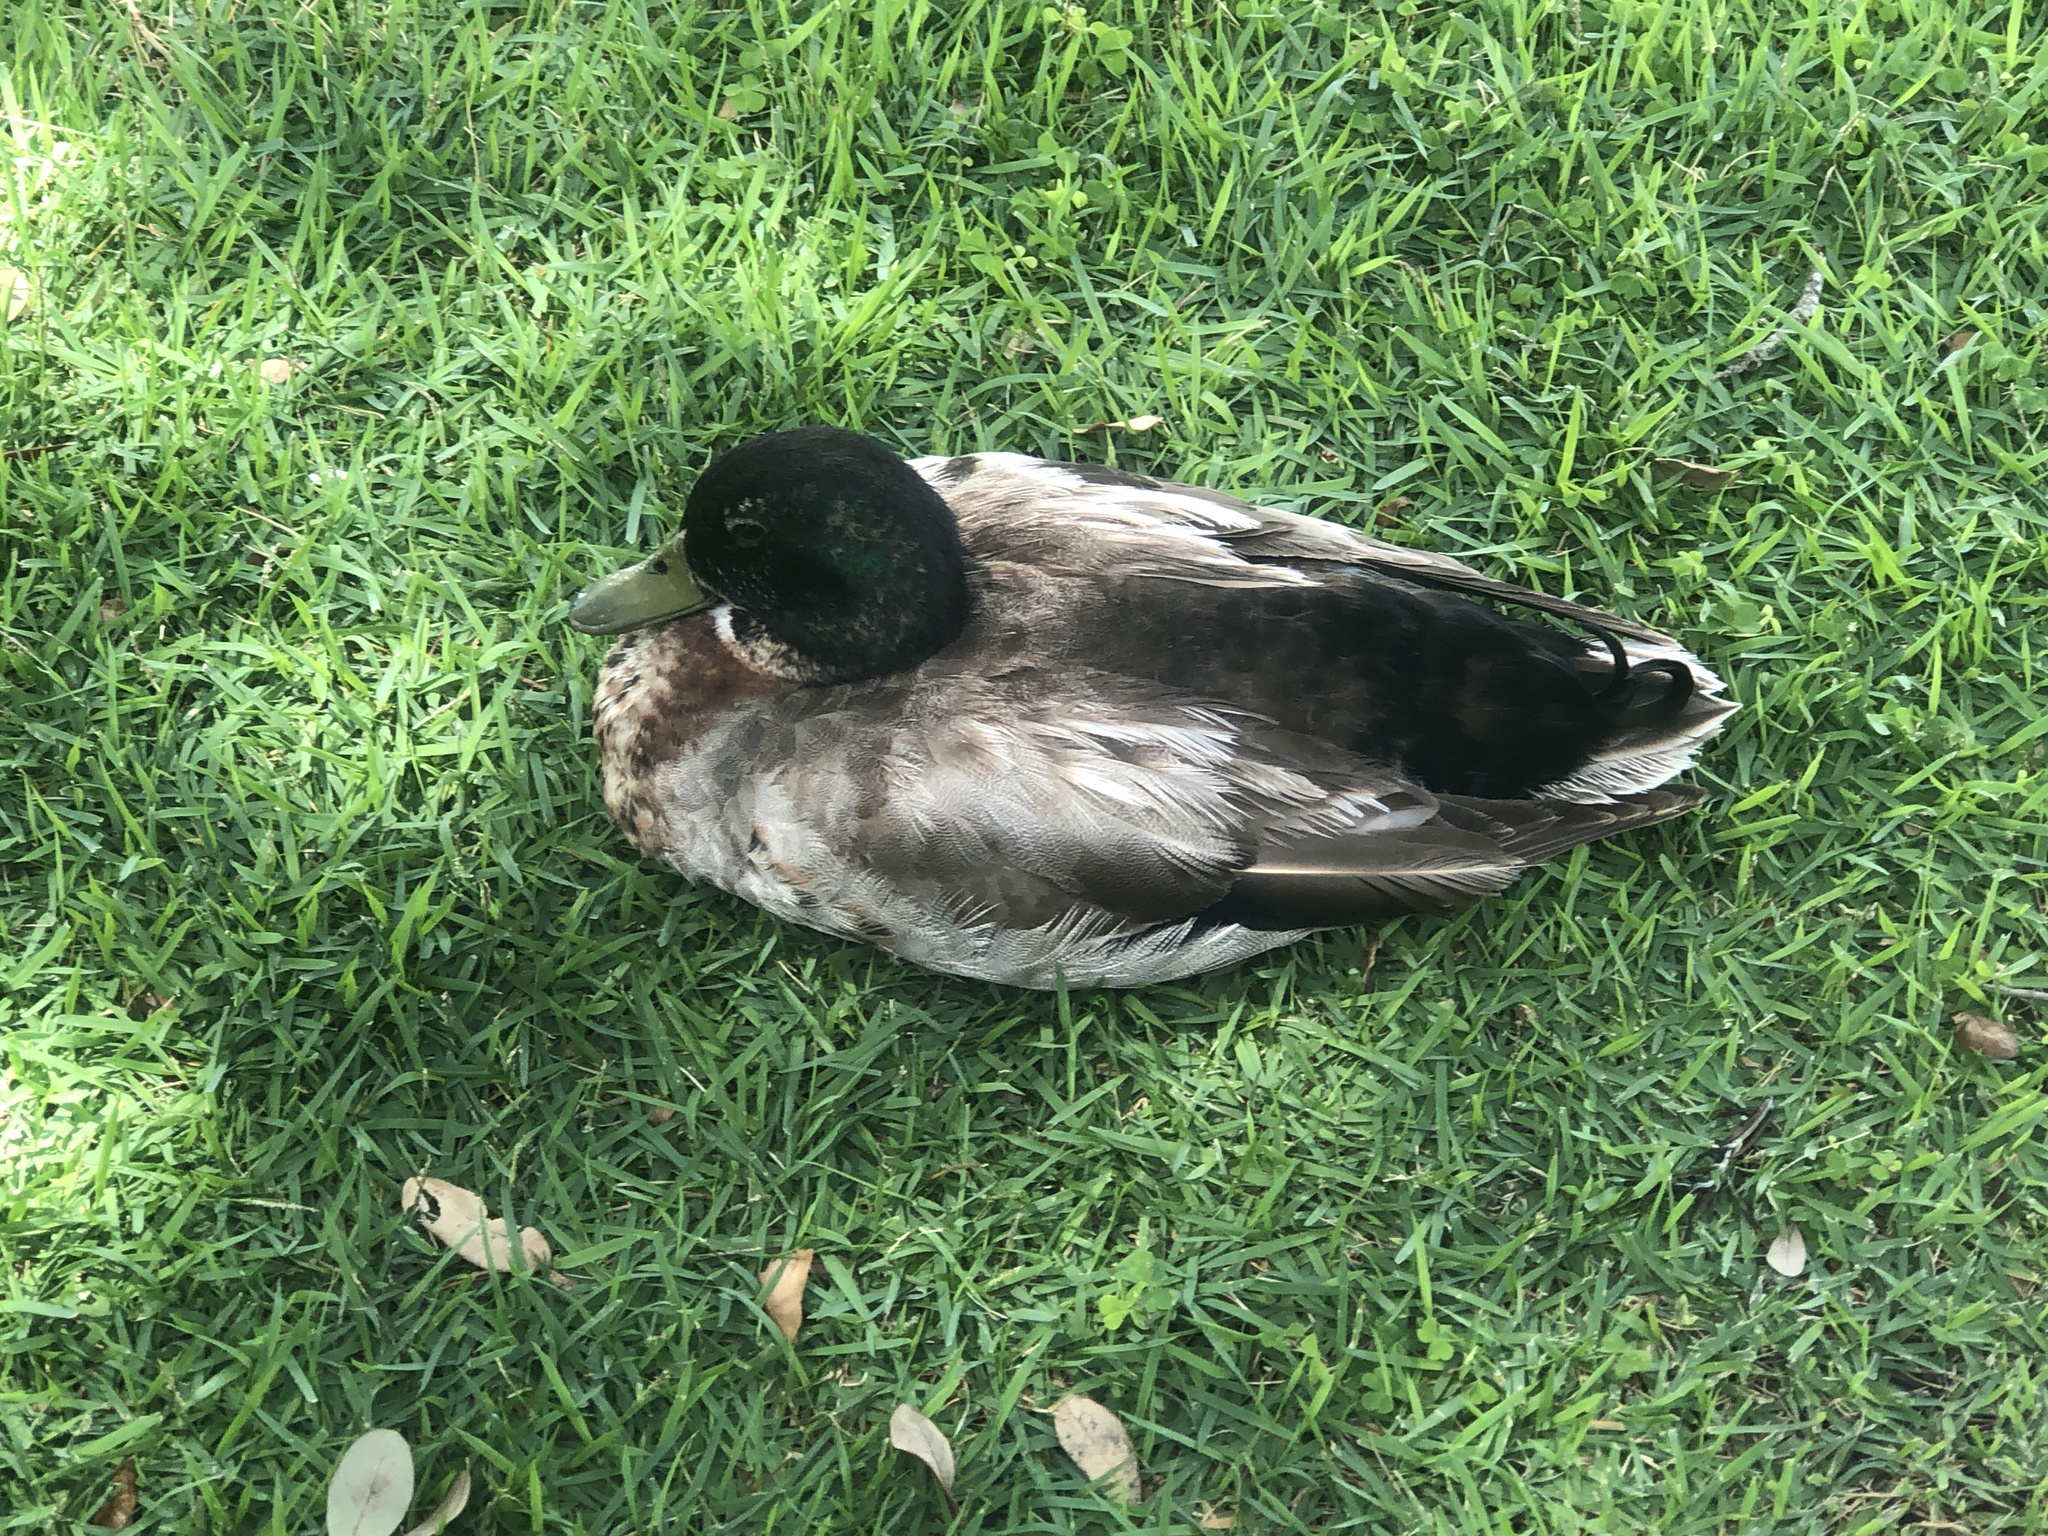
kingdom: Animalia
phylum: Chordata
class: Aves
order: Anseriformes
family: Anatidae
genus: Anas
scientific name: Anas platyrhynchos
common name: Mallard
